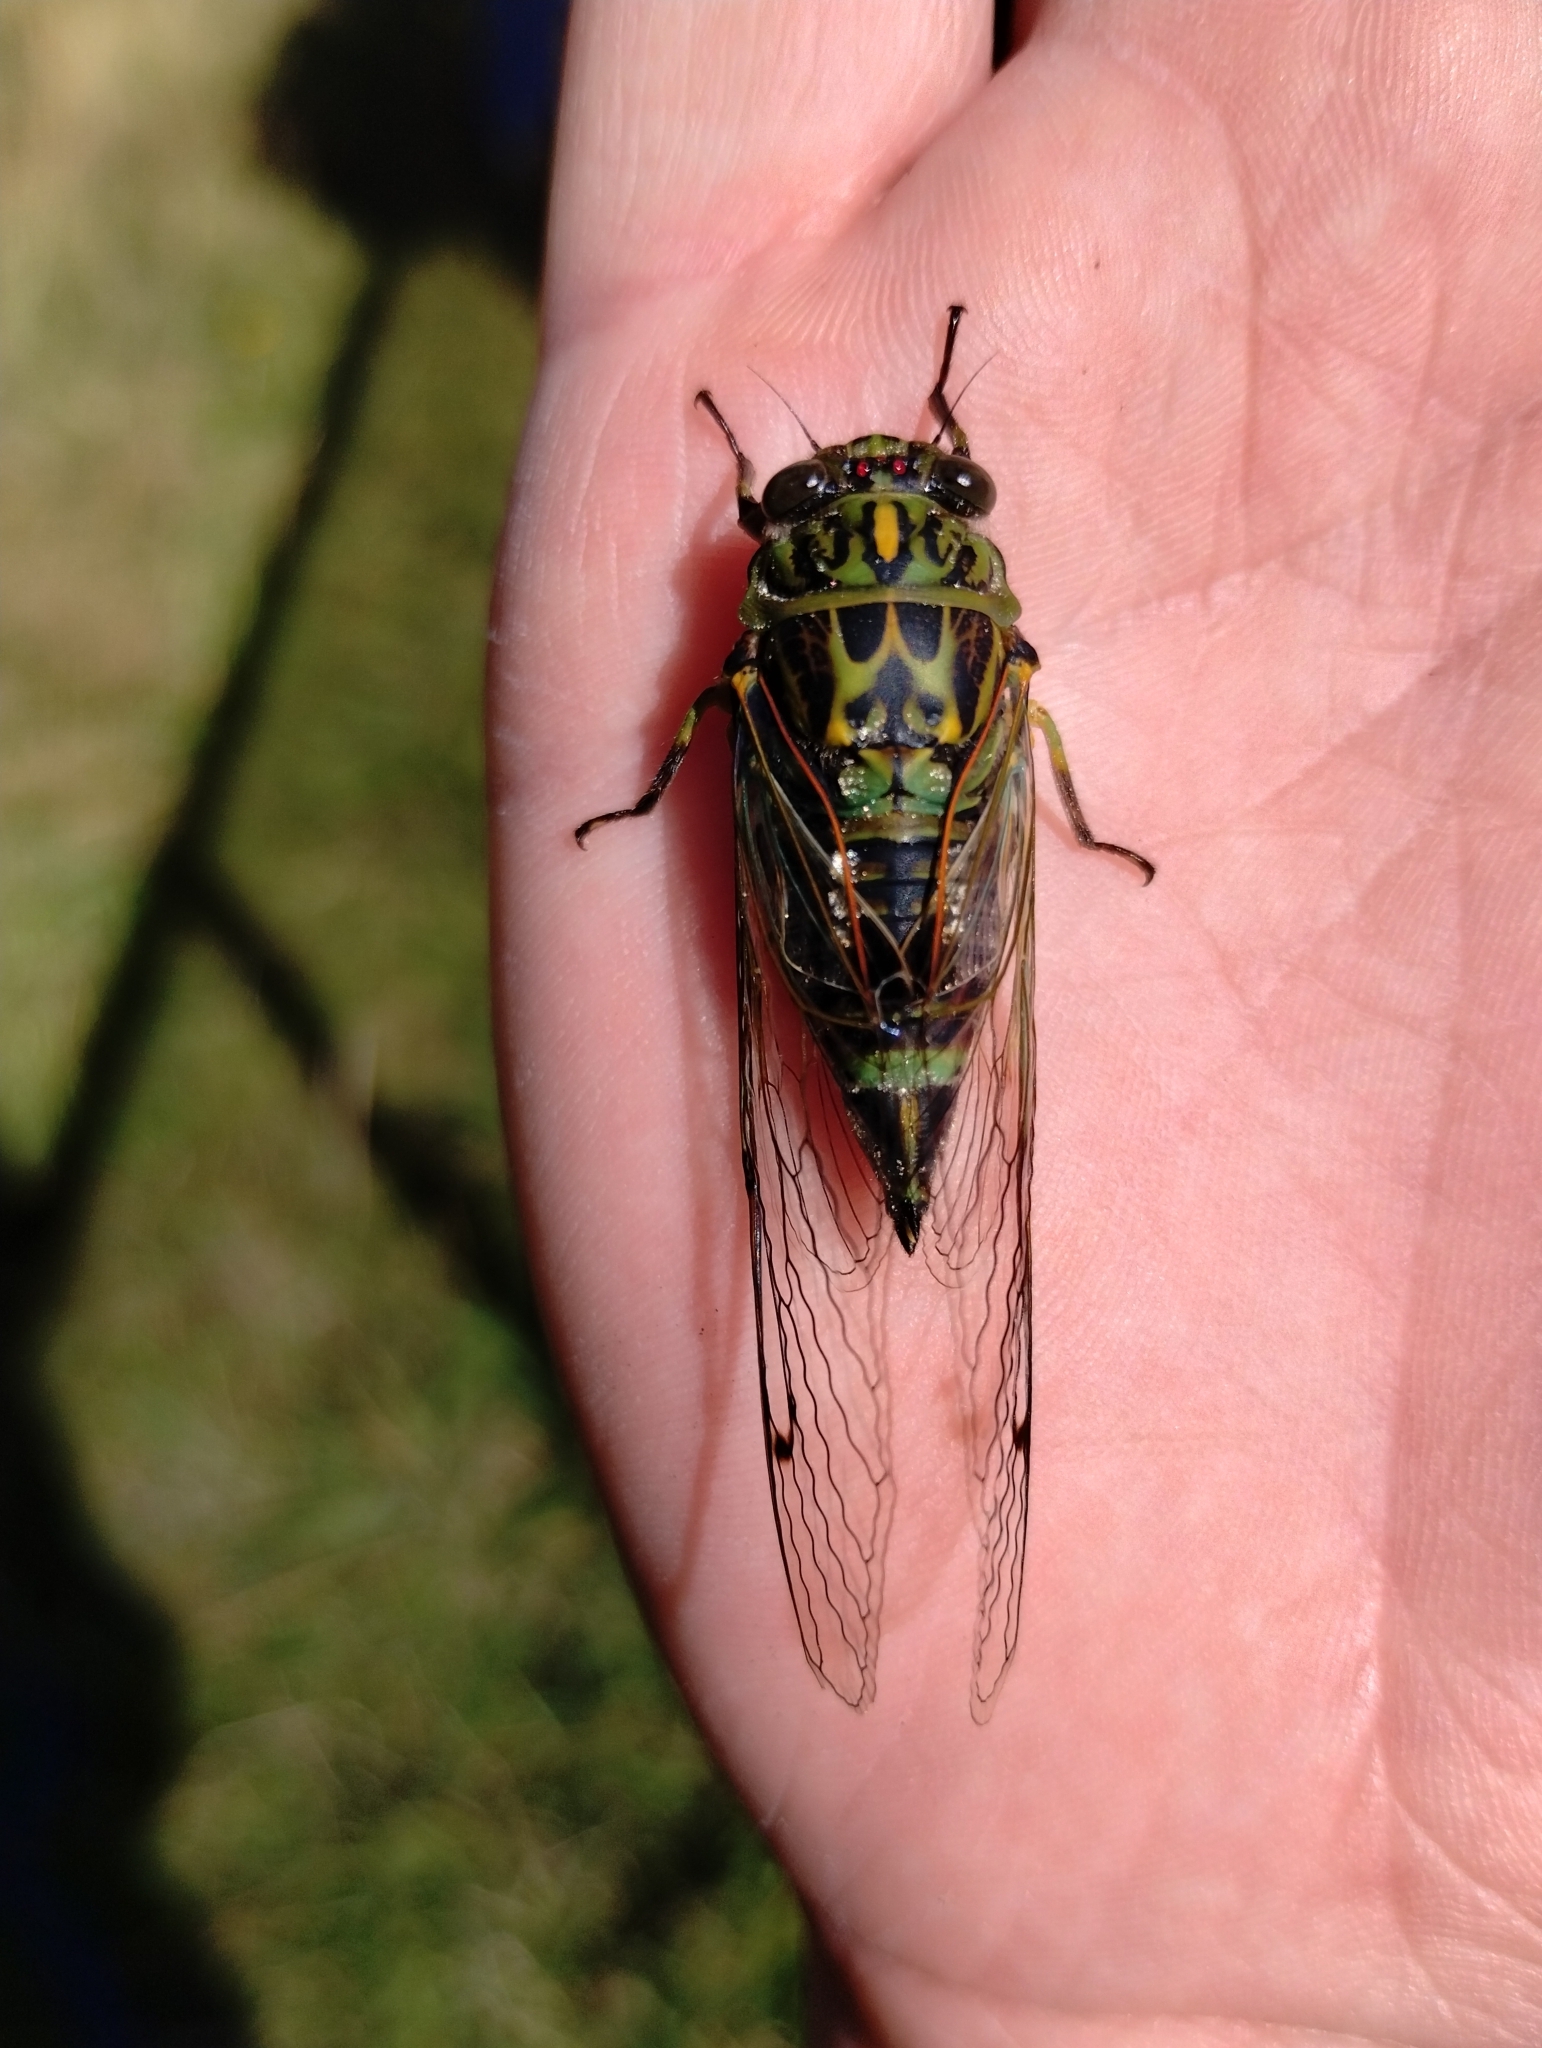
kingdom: Animalia
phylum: Arthropoda
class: Insecta
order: Hemiptera
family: Cicadidae
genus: Amphipsalta
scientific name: Amphipsalta zelandica
